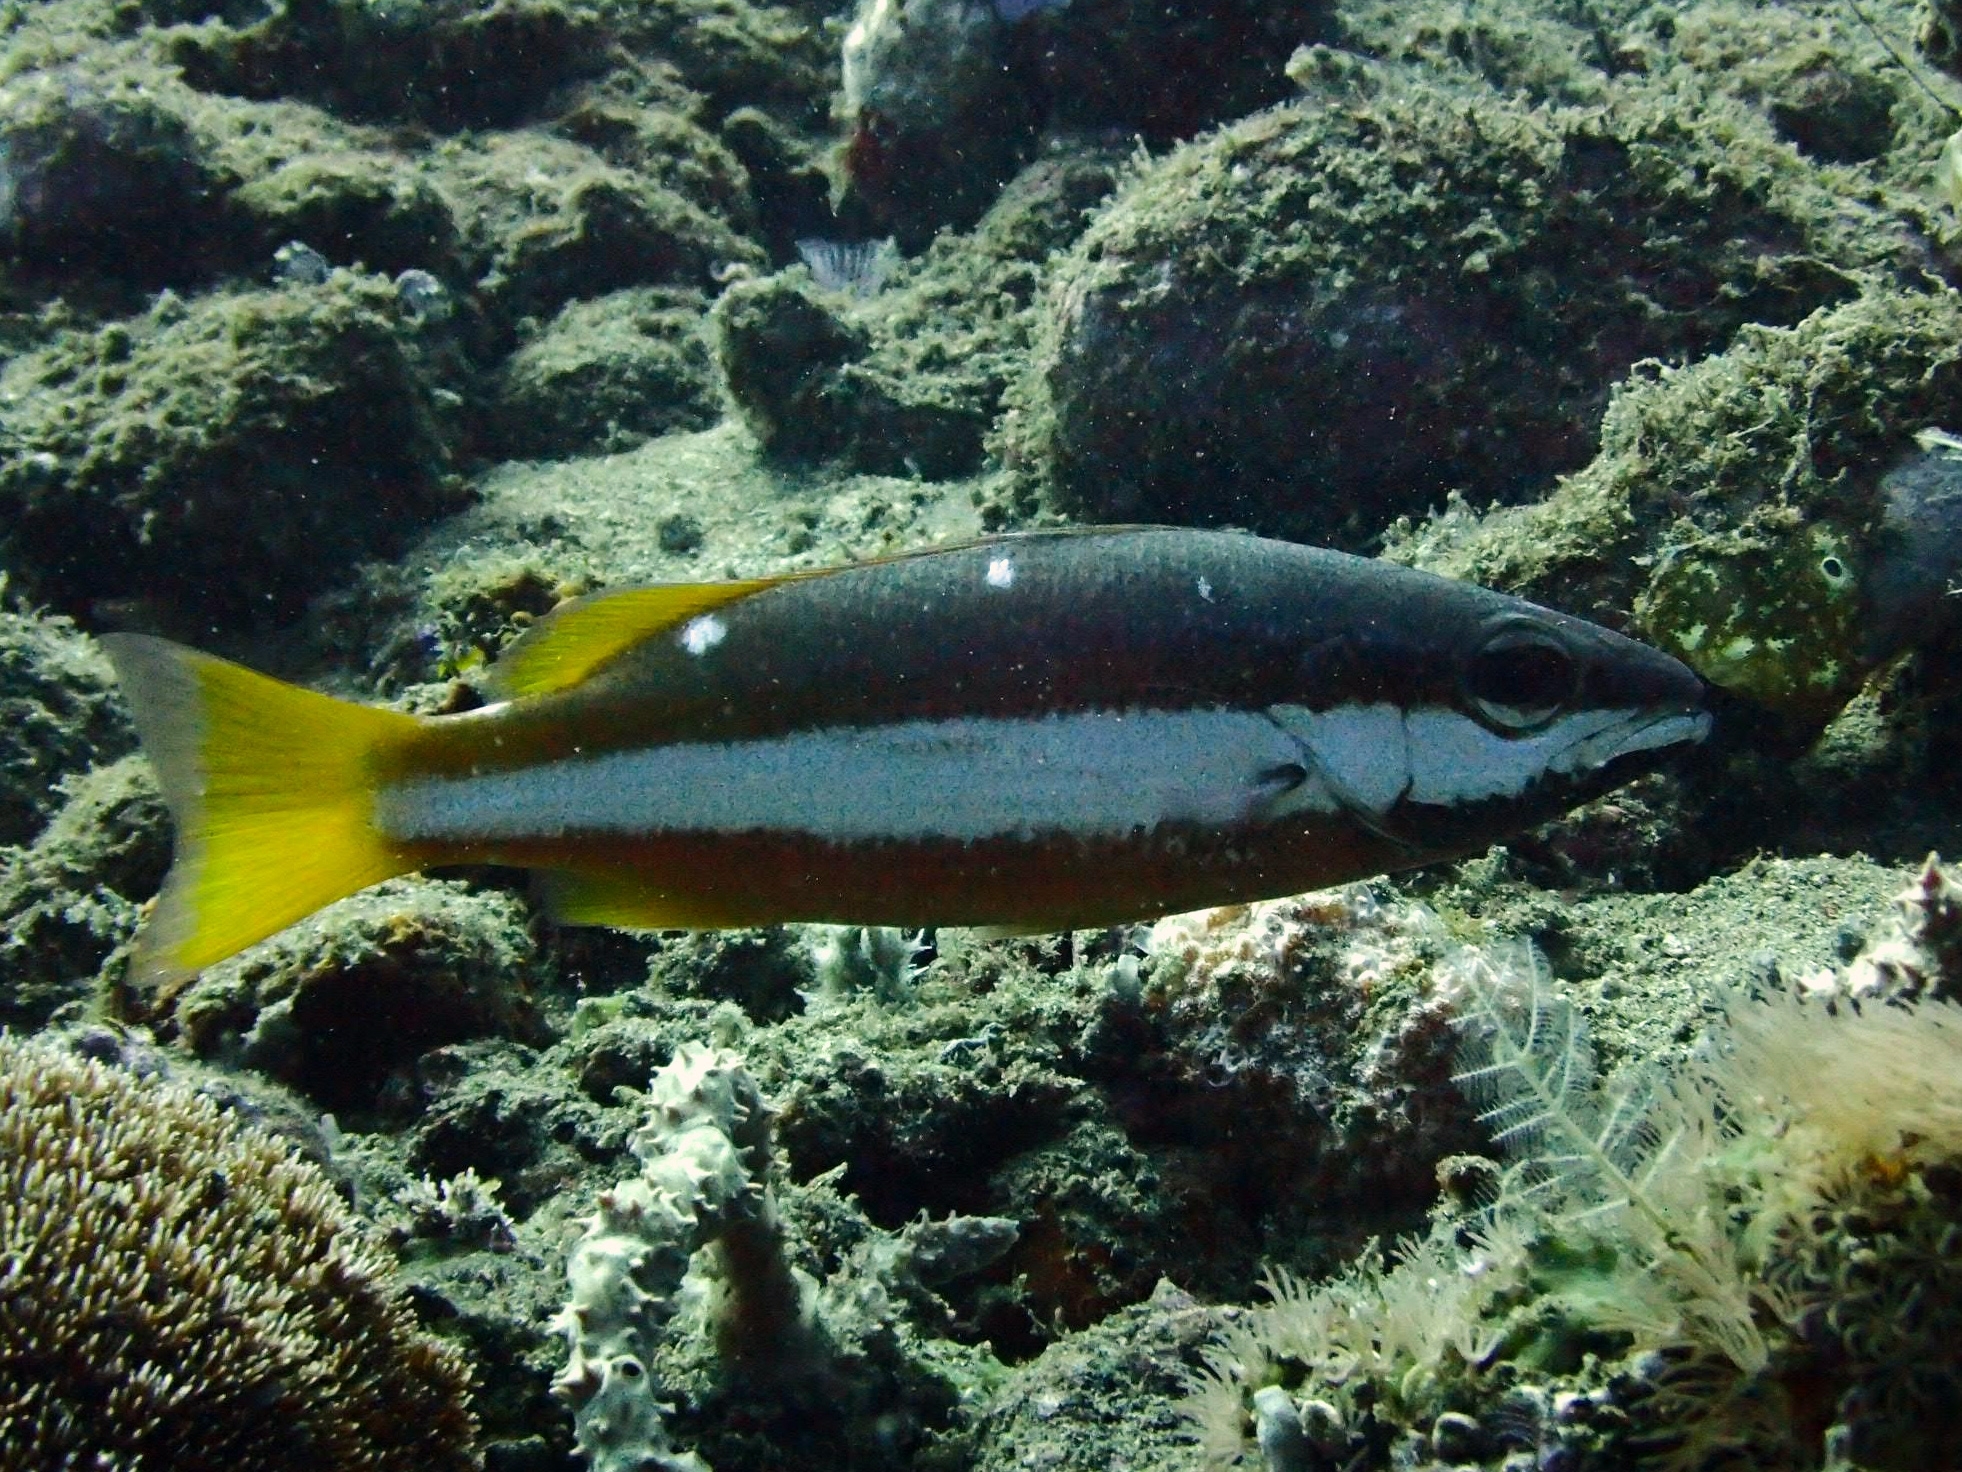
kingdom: Animalia
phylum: Chordata
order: Perciformes
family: Lutjanidae
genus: Lutjanus
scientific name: Lutjanus biguttatus
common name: Two-spot snapper
